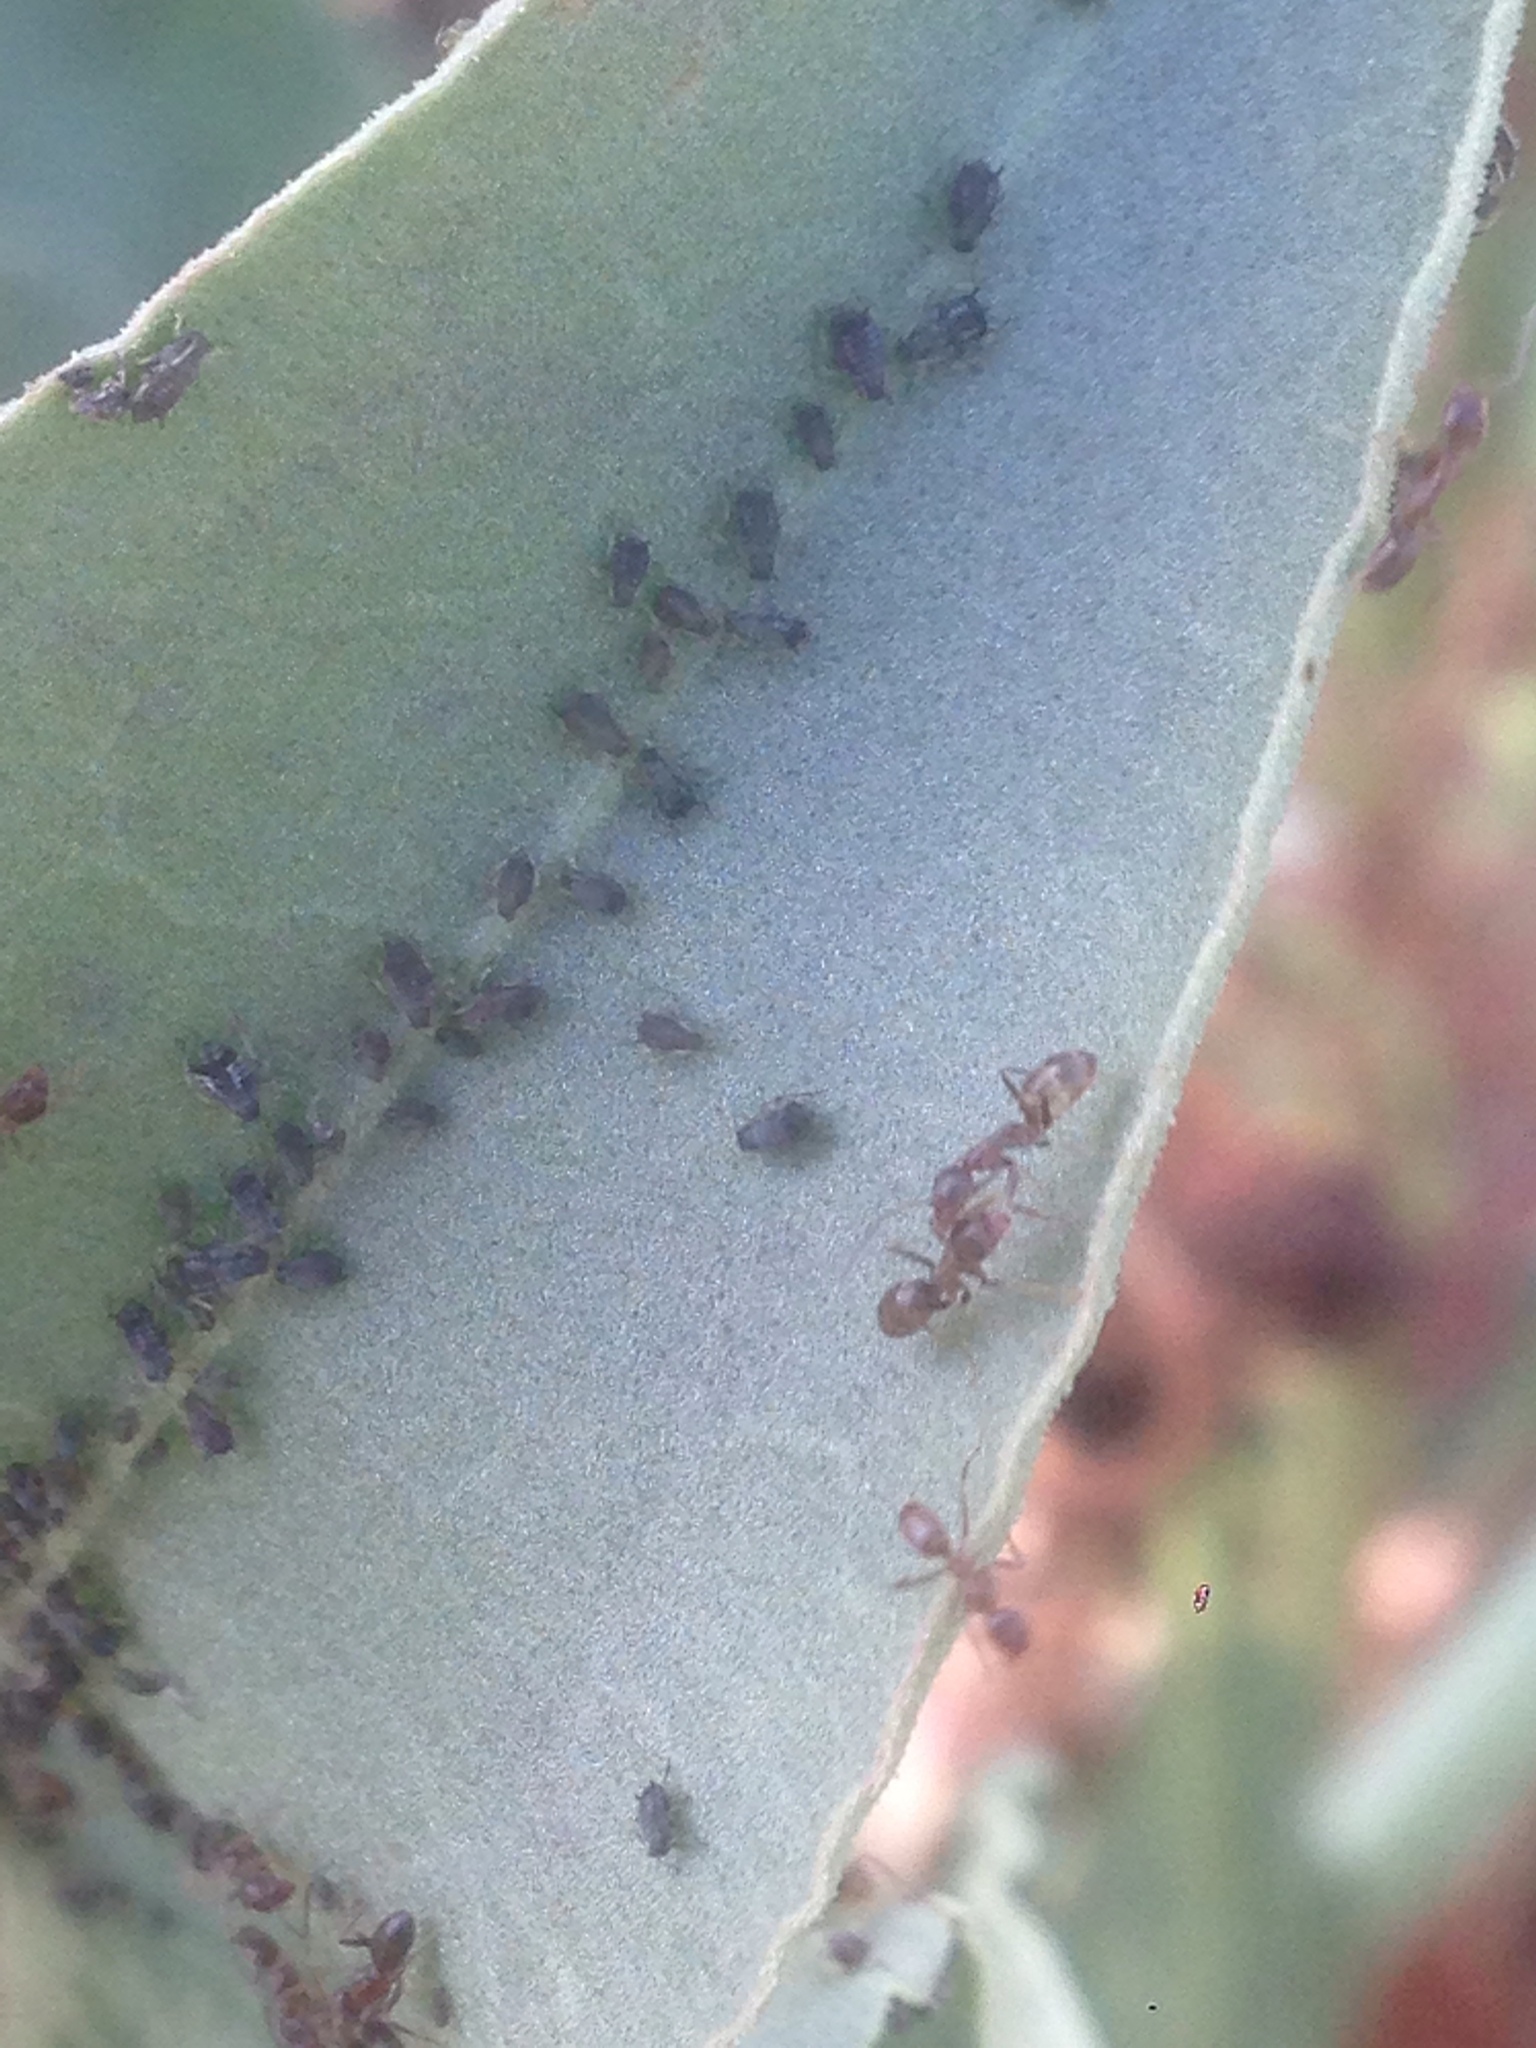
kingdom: Animalia
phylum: Arthropoda
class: Insecta
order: Hymenoptera
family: Formicidae
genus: Linepithema
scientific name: Linepithema humile
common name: Argentine ant
